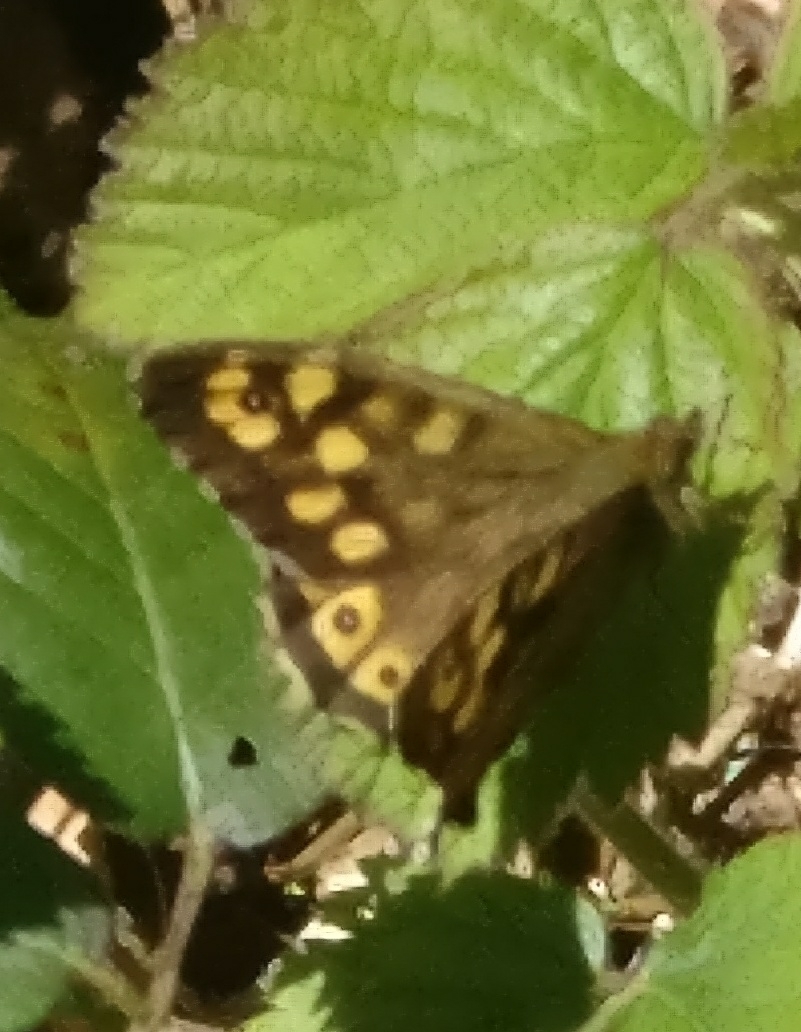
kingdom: Animalia
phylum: Arthropoda
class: Insecta
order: Lepidoptera
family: Nymphalidae
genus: Pararge
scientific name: Pararge aegeria
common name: Speckled wood
